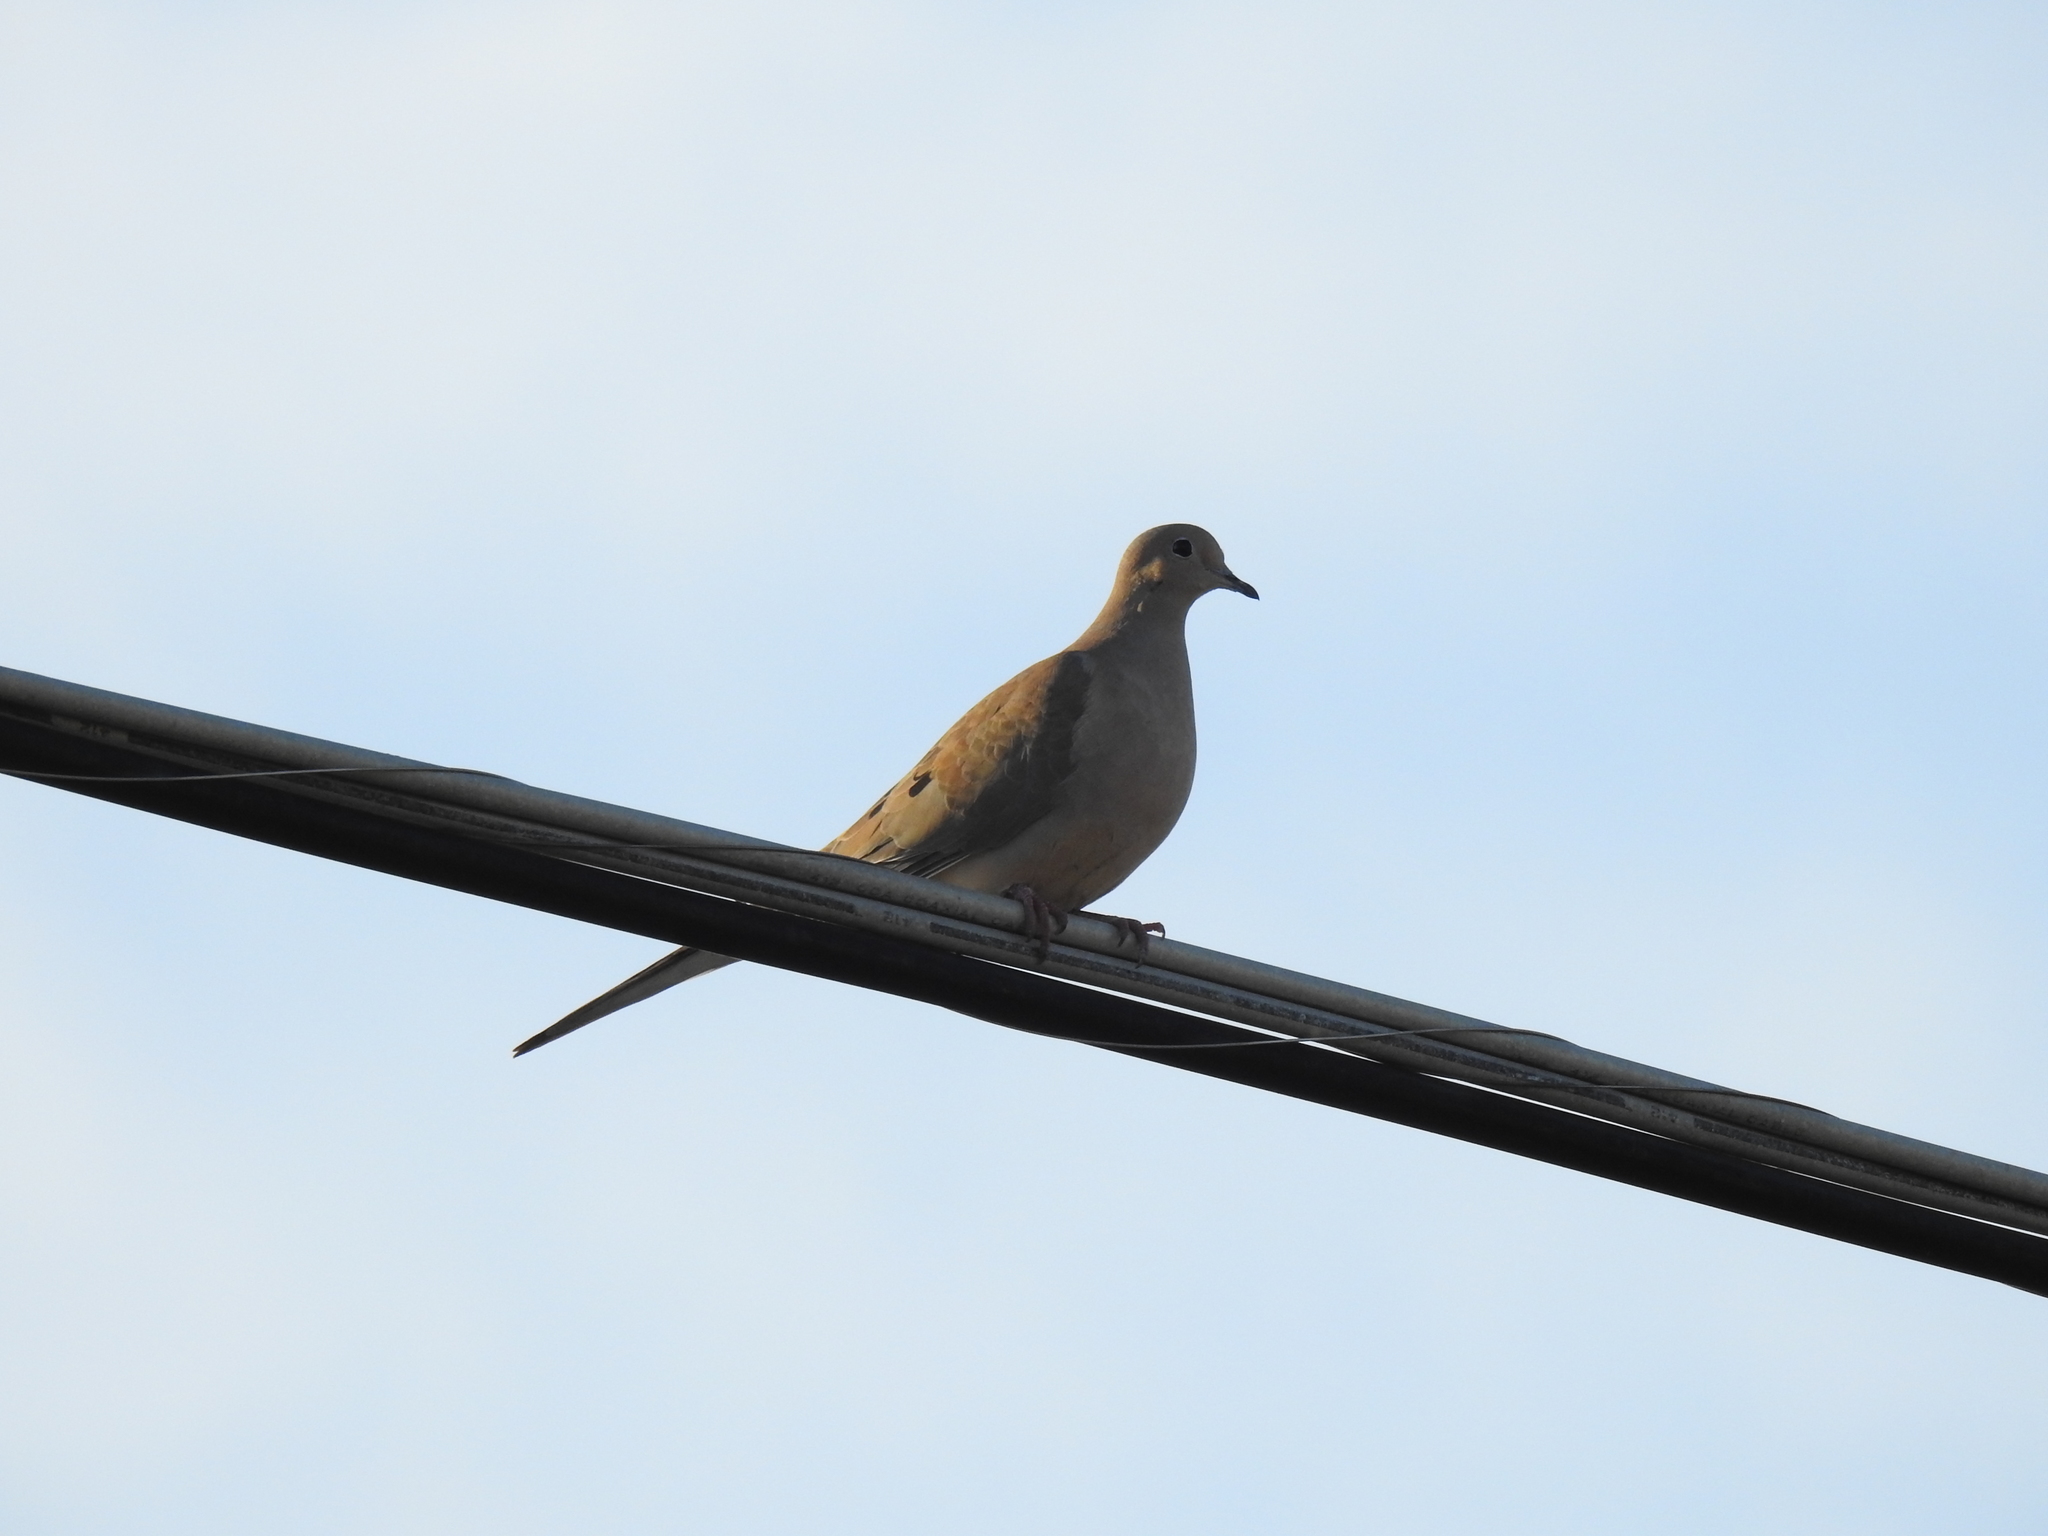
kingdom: Animalia
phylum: Chordata
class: Aves
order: Columbiformes
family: Columbidae
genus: Zenaida
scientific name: Zenaida macroura
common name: Mourning dove
